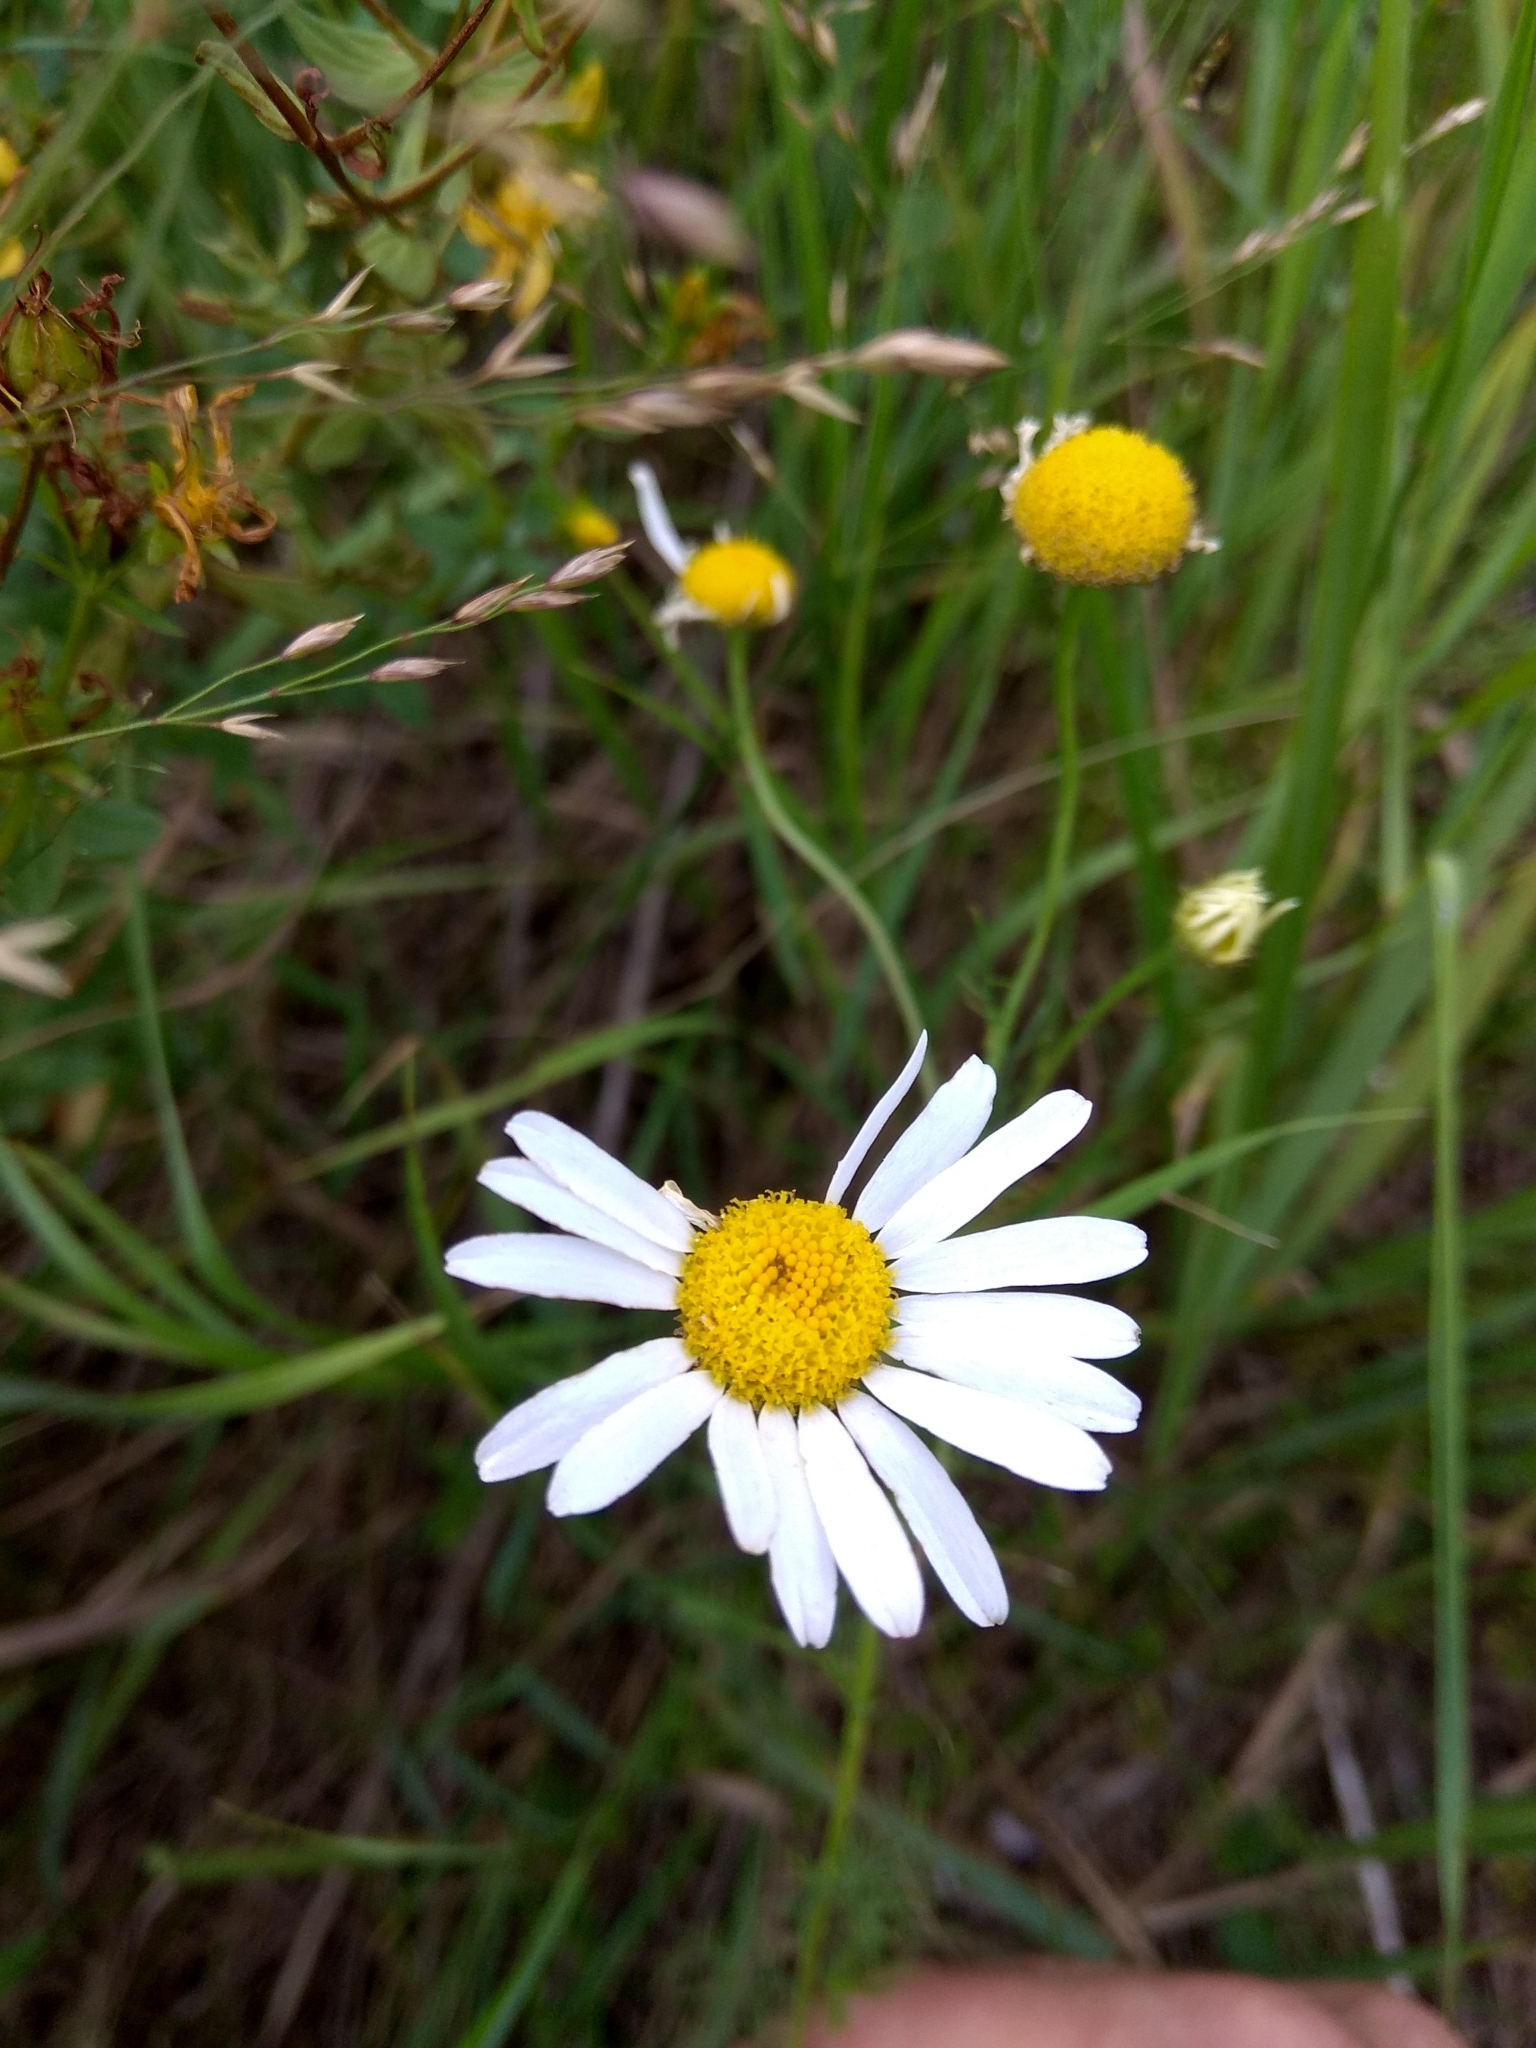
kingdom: Plantae
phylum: Tracheophyta
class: Magnoliopsida
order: Asterales
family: Asteraceae
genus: Tripleurospermum
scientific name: Tripleurospermum inodorum
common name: Scentless mayweed
